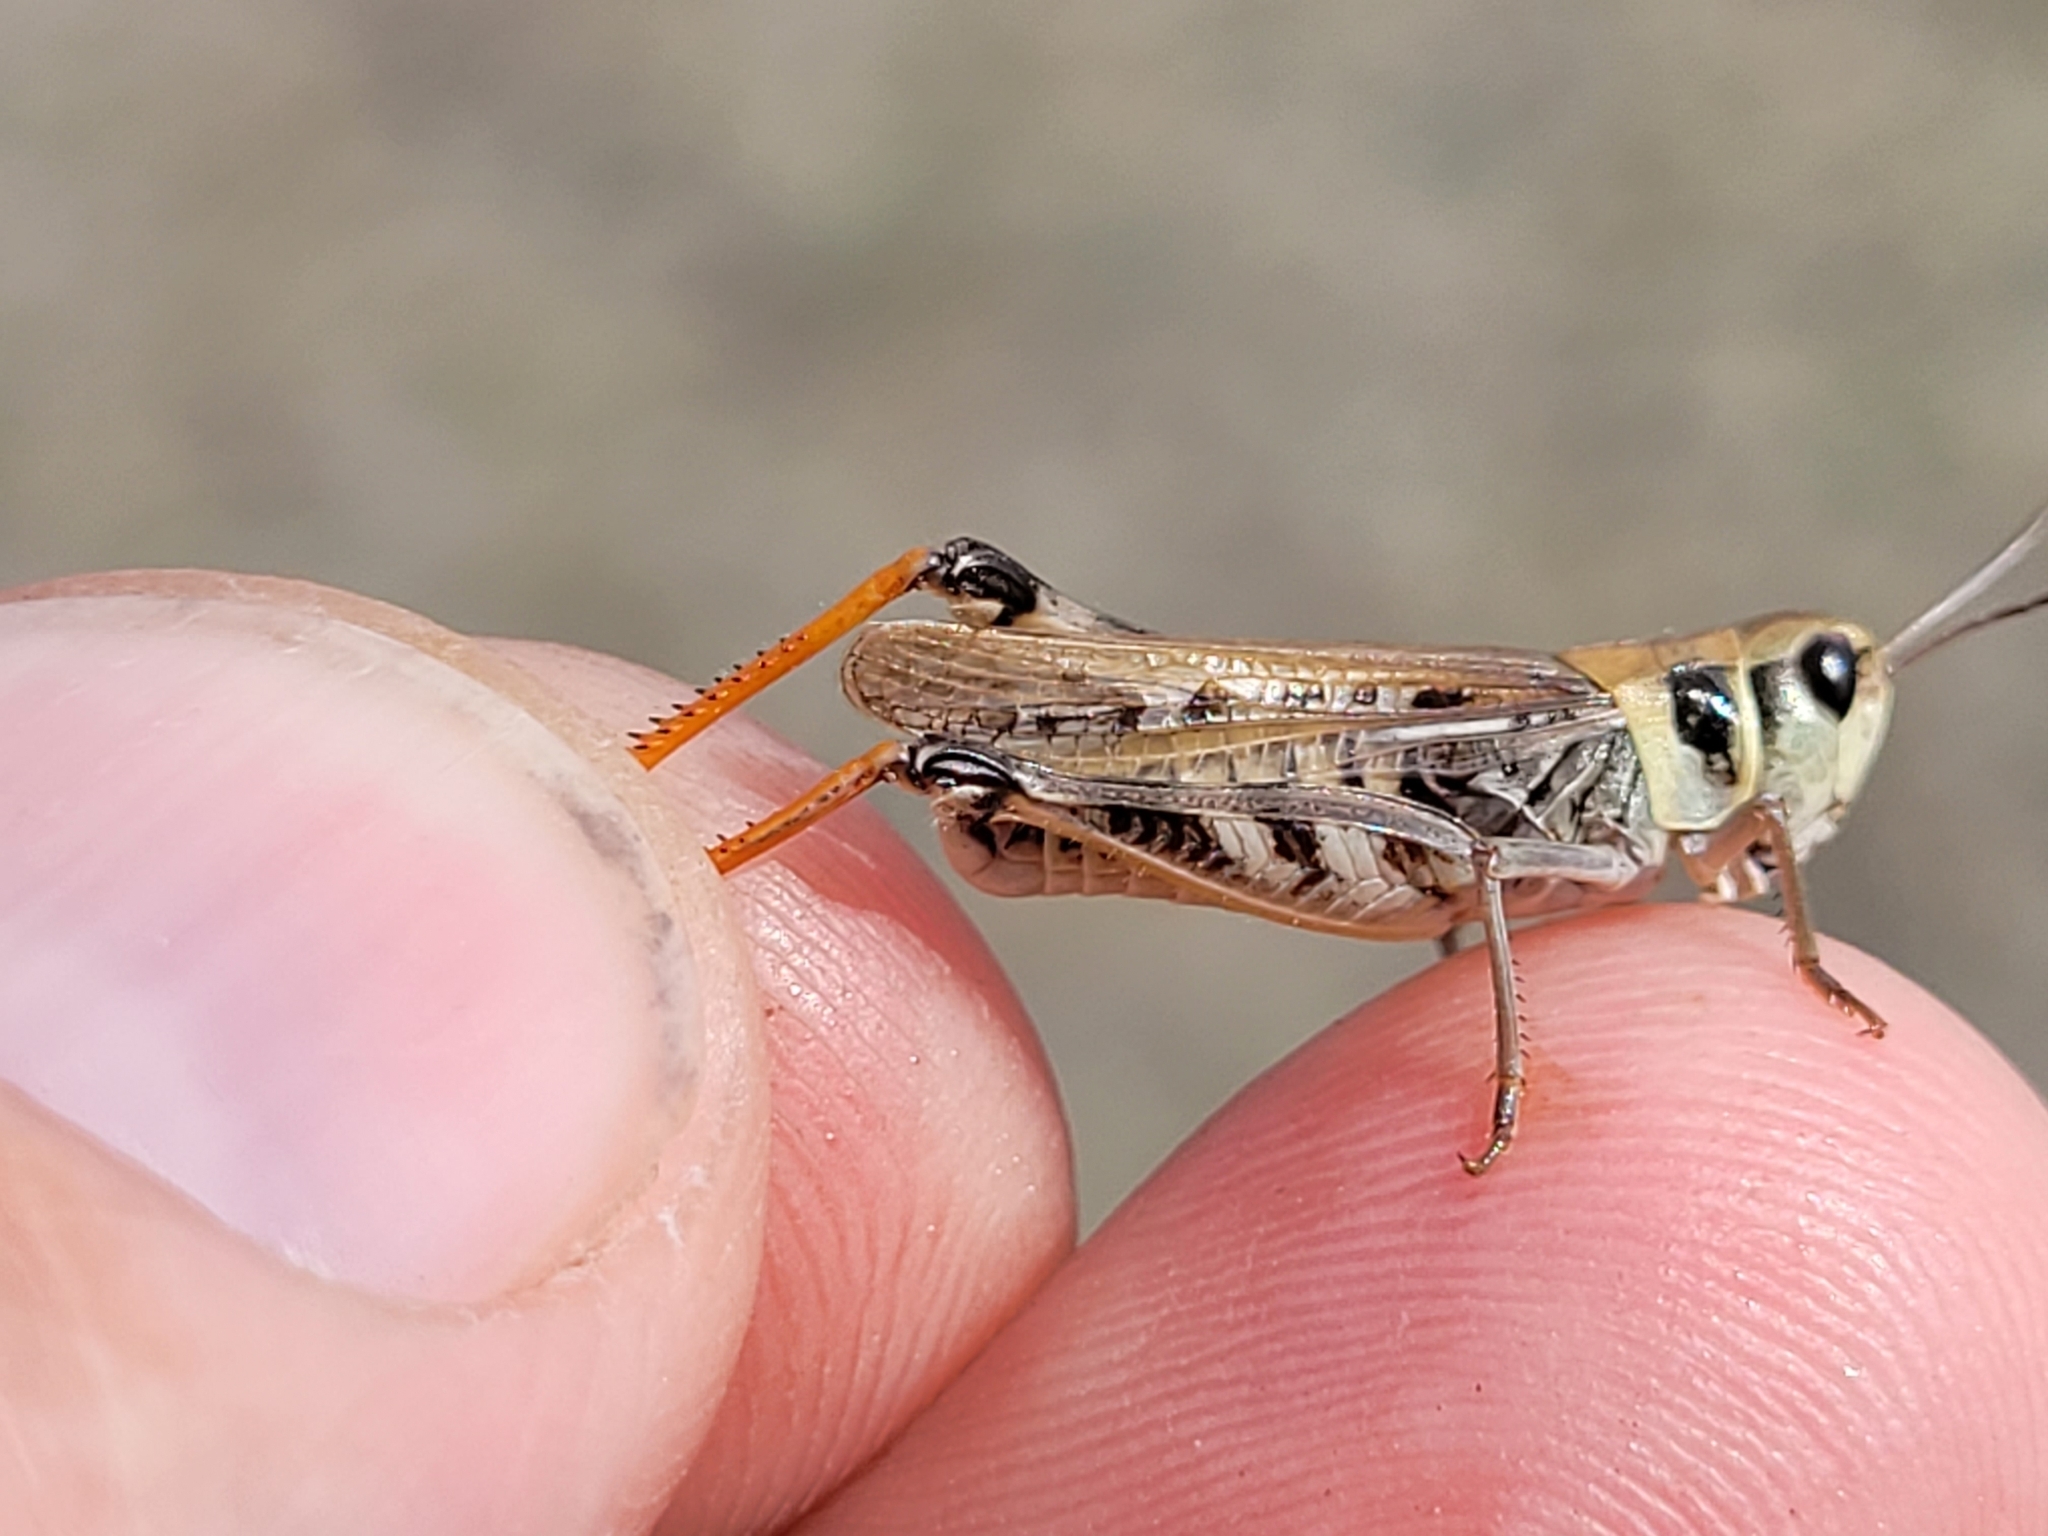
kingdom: Animalia
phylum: Arthropoda
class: Insecta
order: Orthoptera
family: Acrididae
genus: Bruneria
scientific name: Bruneria brunnea
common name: Bruner slantfaced grasshopper
